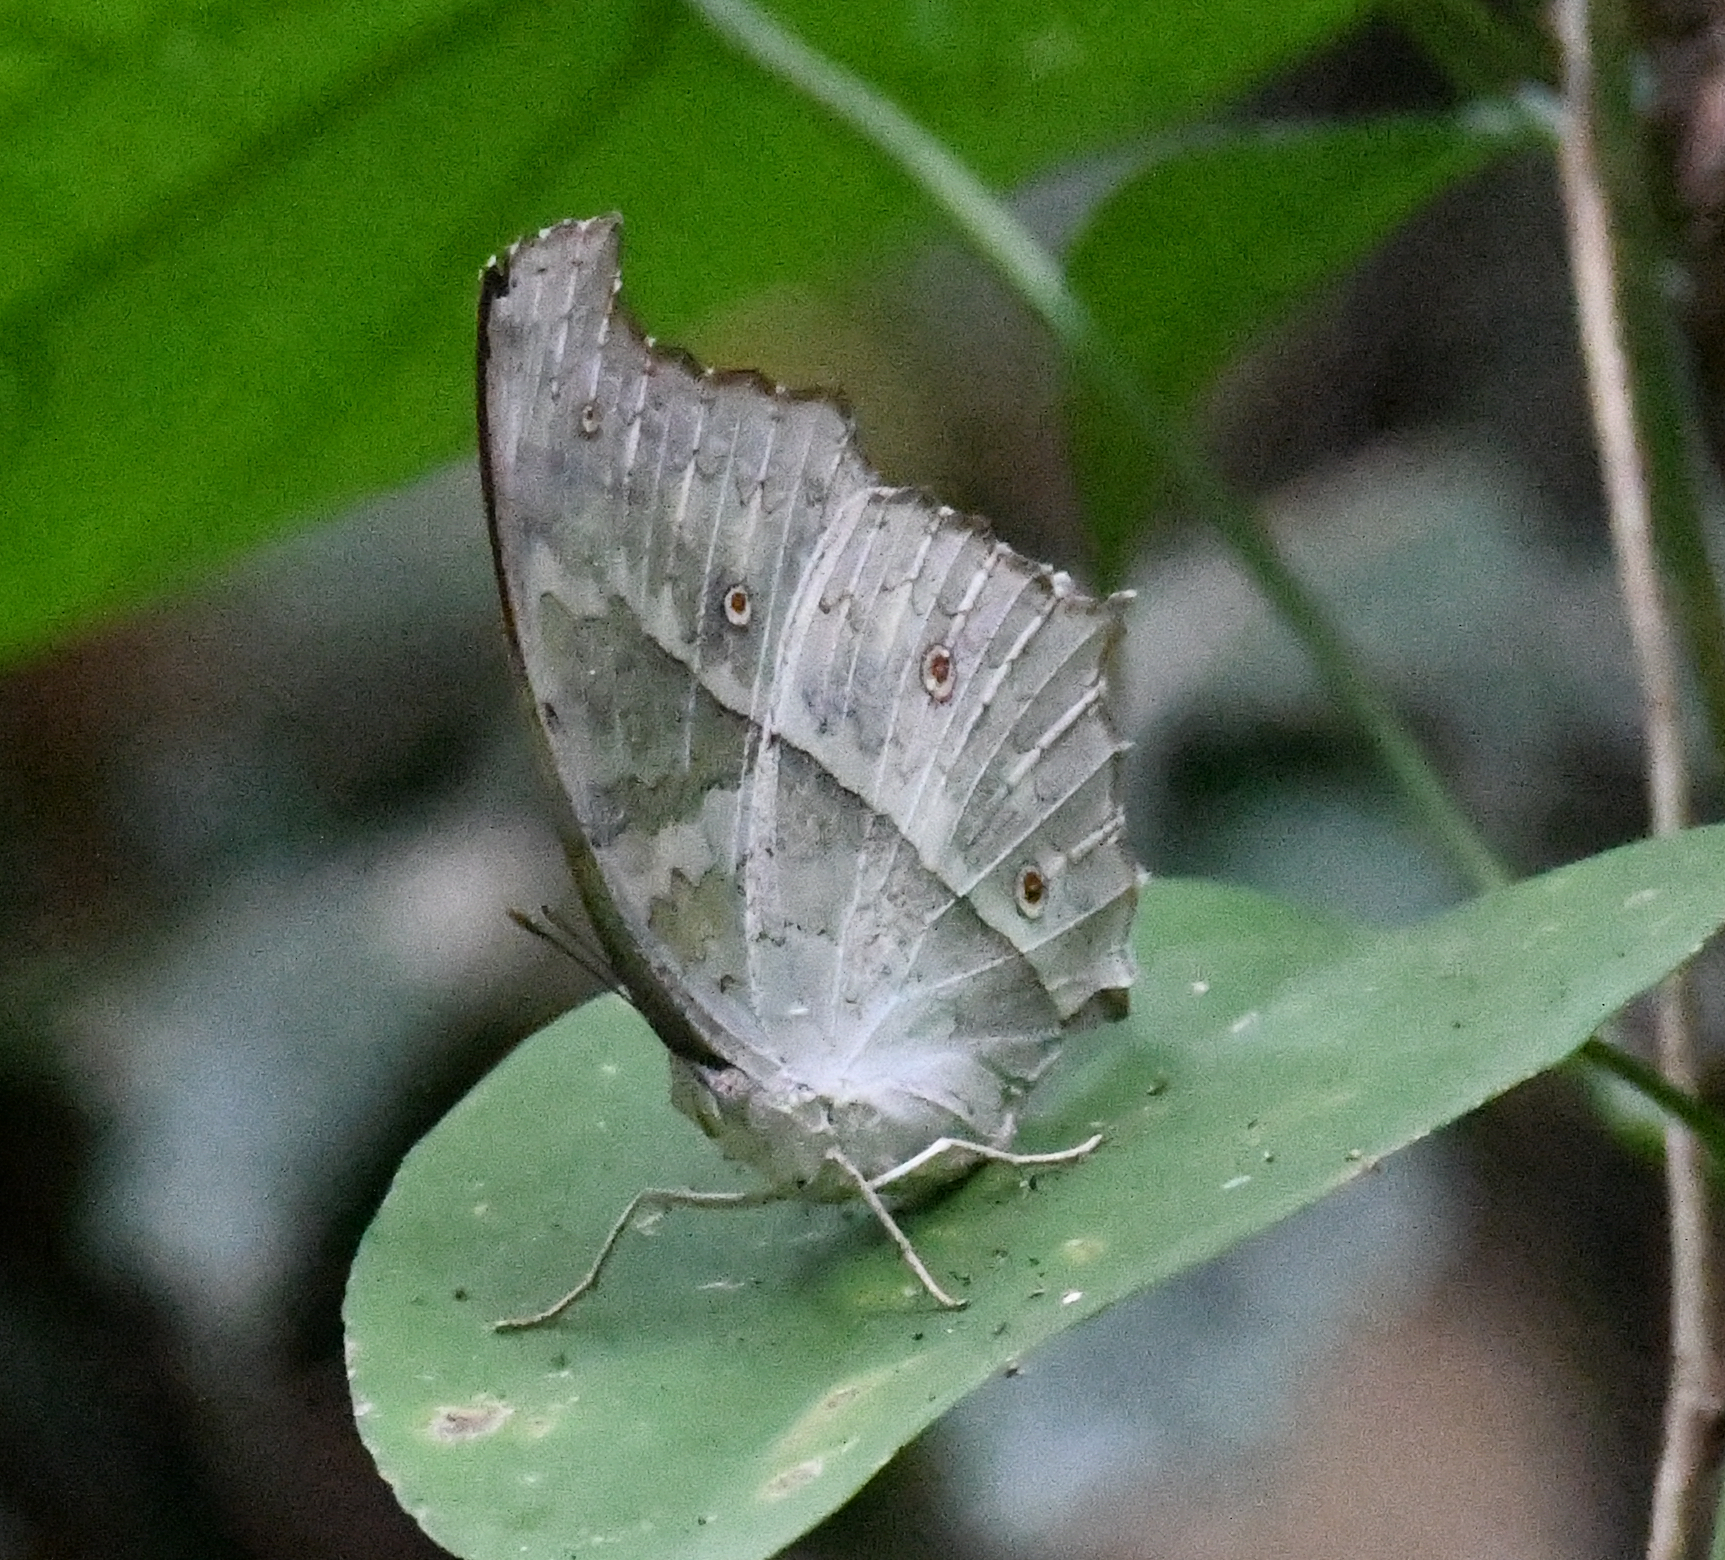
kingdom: Animalia
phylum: Arthropoda
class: Insecta
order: Lepidoptera
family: Nymphalidae
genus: Salamis
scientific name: Salamis Protogoniomorpha parhassus
